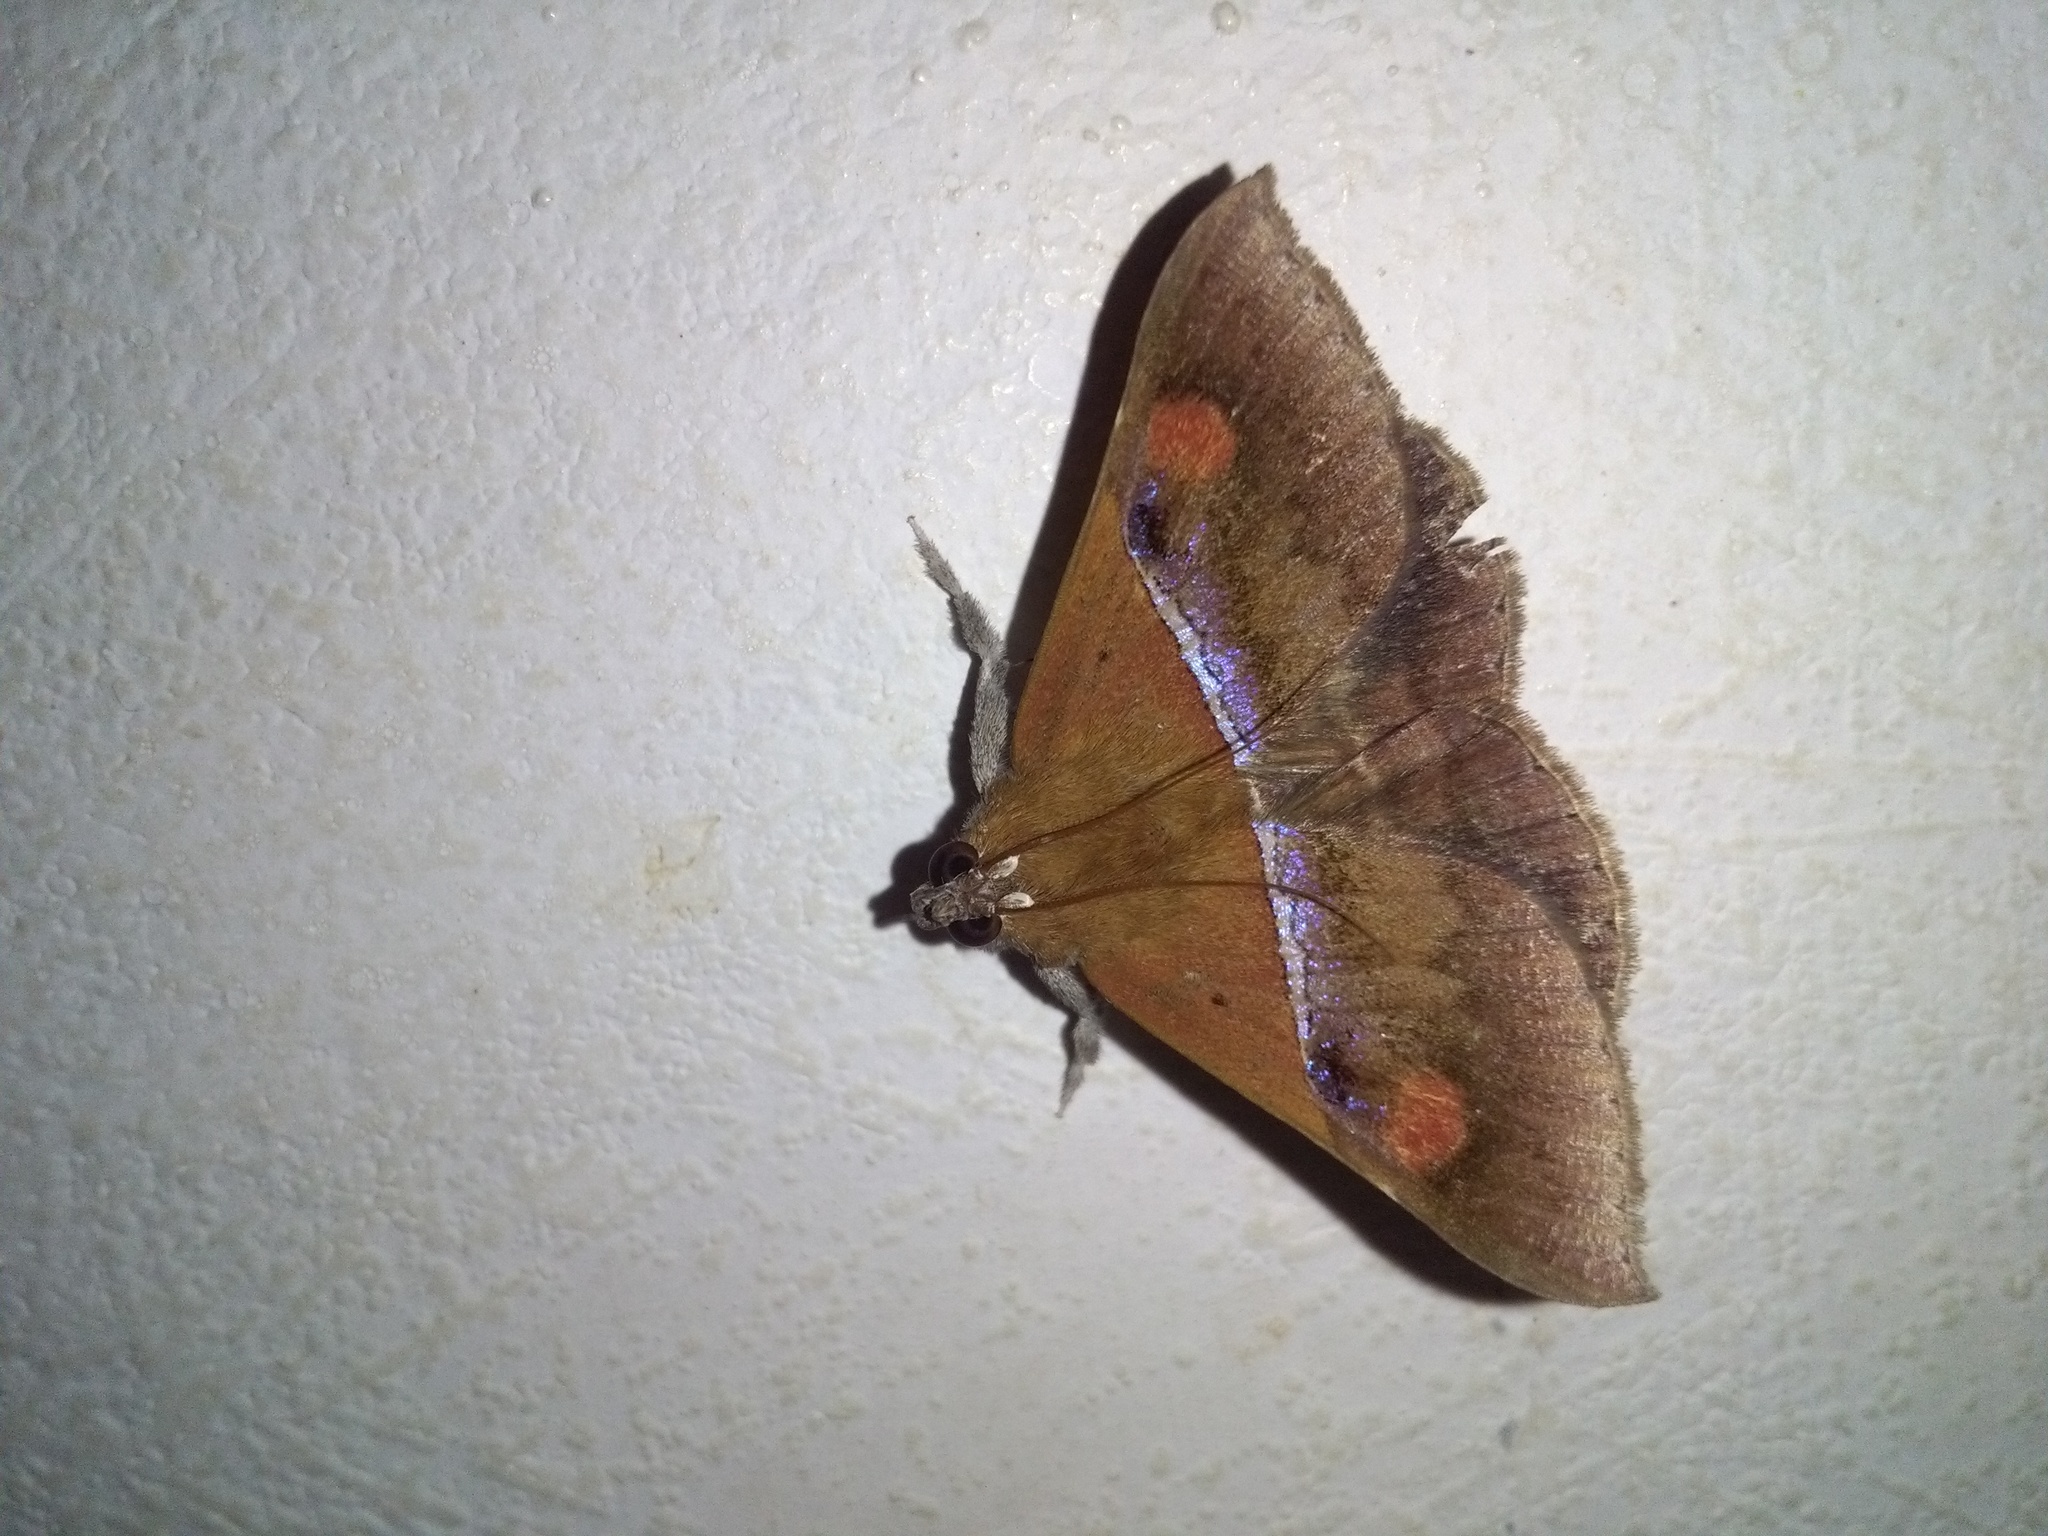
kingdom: Animalia
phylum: Arthropoda
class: Insecta
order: Lepidoptera
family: Erebidae
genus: Sympis
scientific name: Sympis rufibasis
